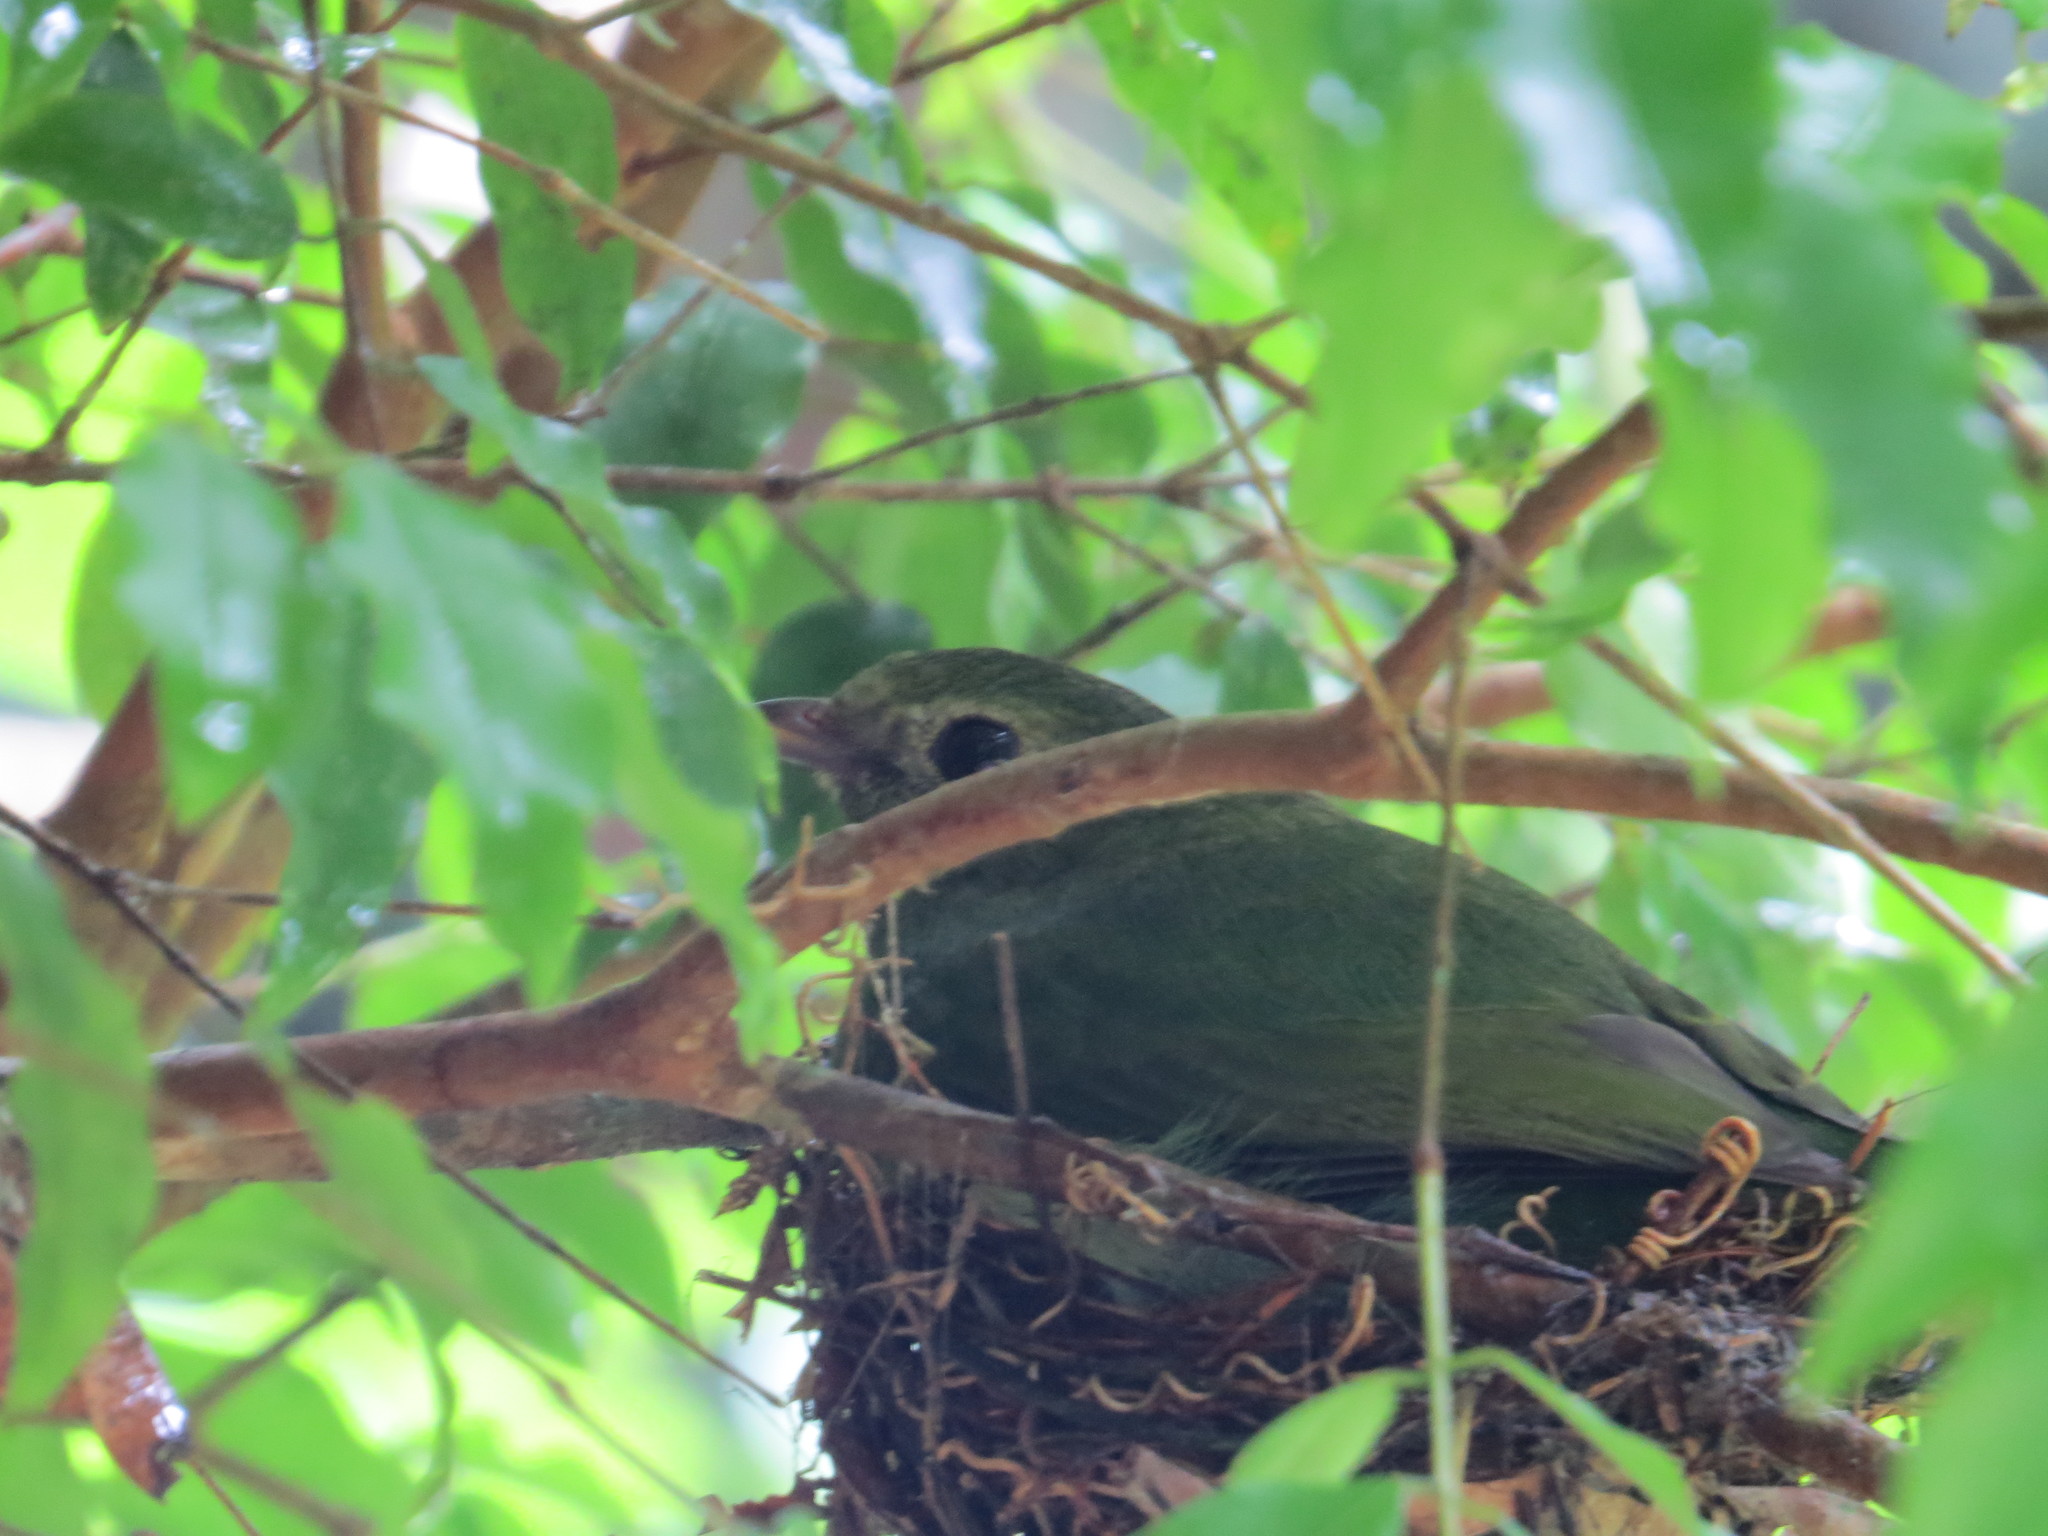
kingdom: Animalia
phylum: Chordata
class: Aves
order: Passeriformes
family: Pipridae
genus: Chiroxiphia
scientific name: Chiroxiphia caudata
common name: Blue manakin
